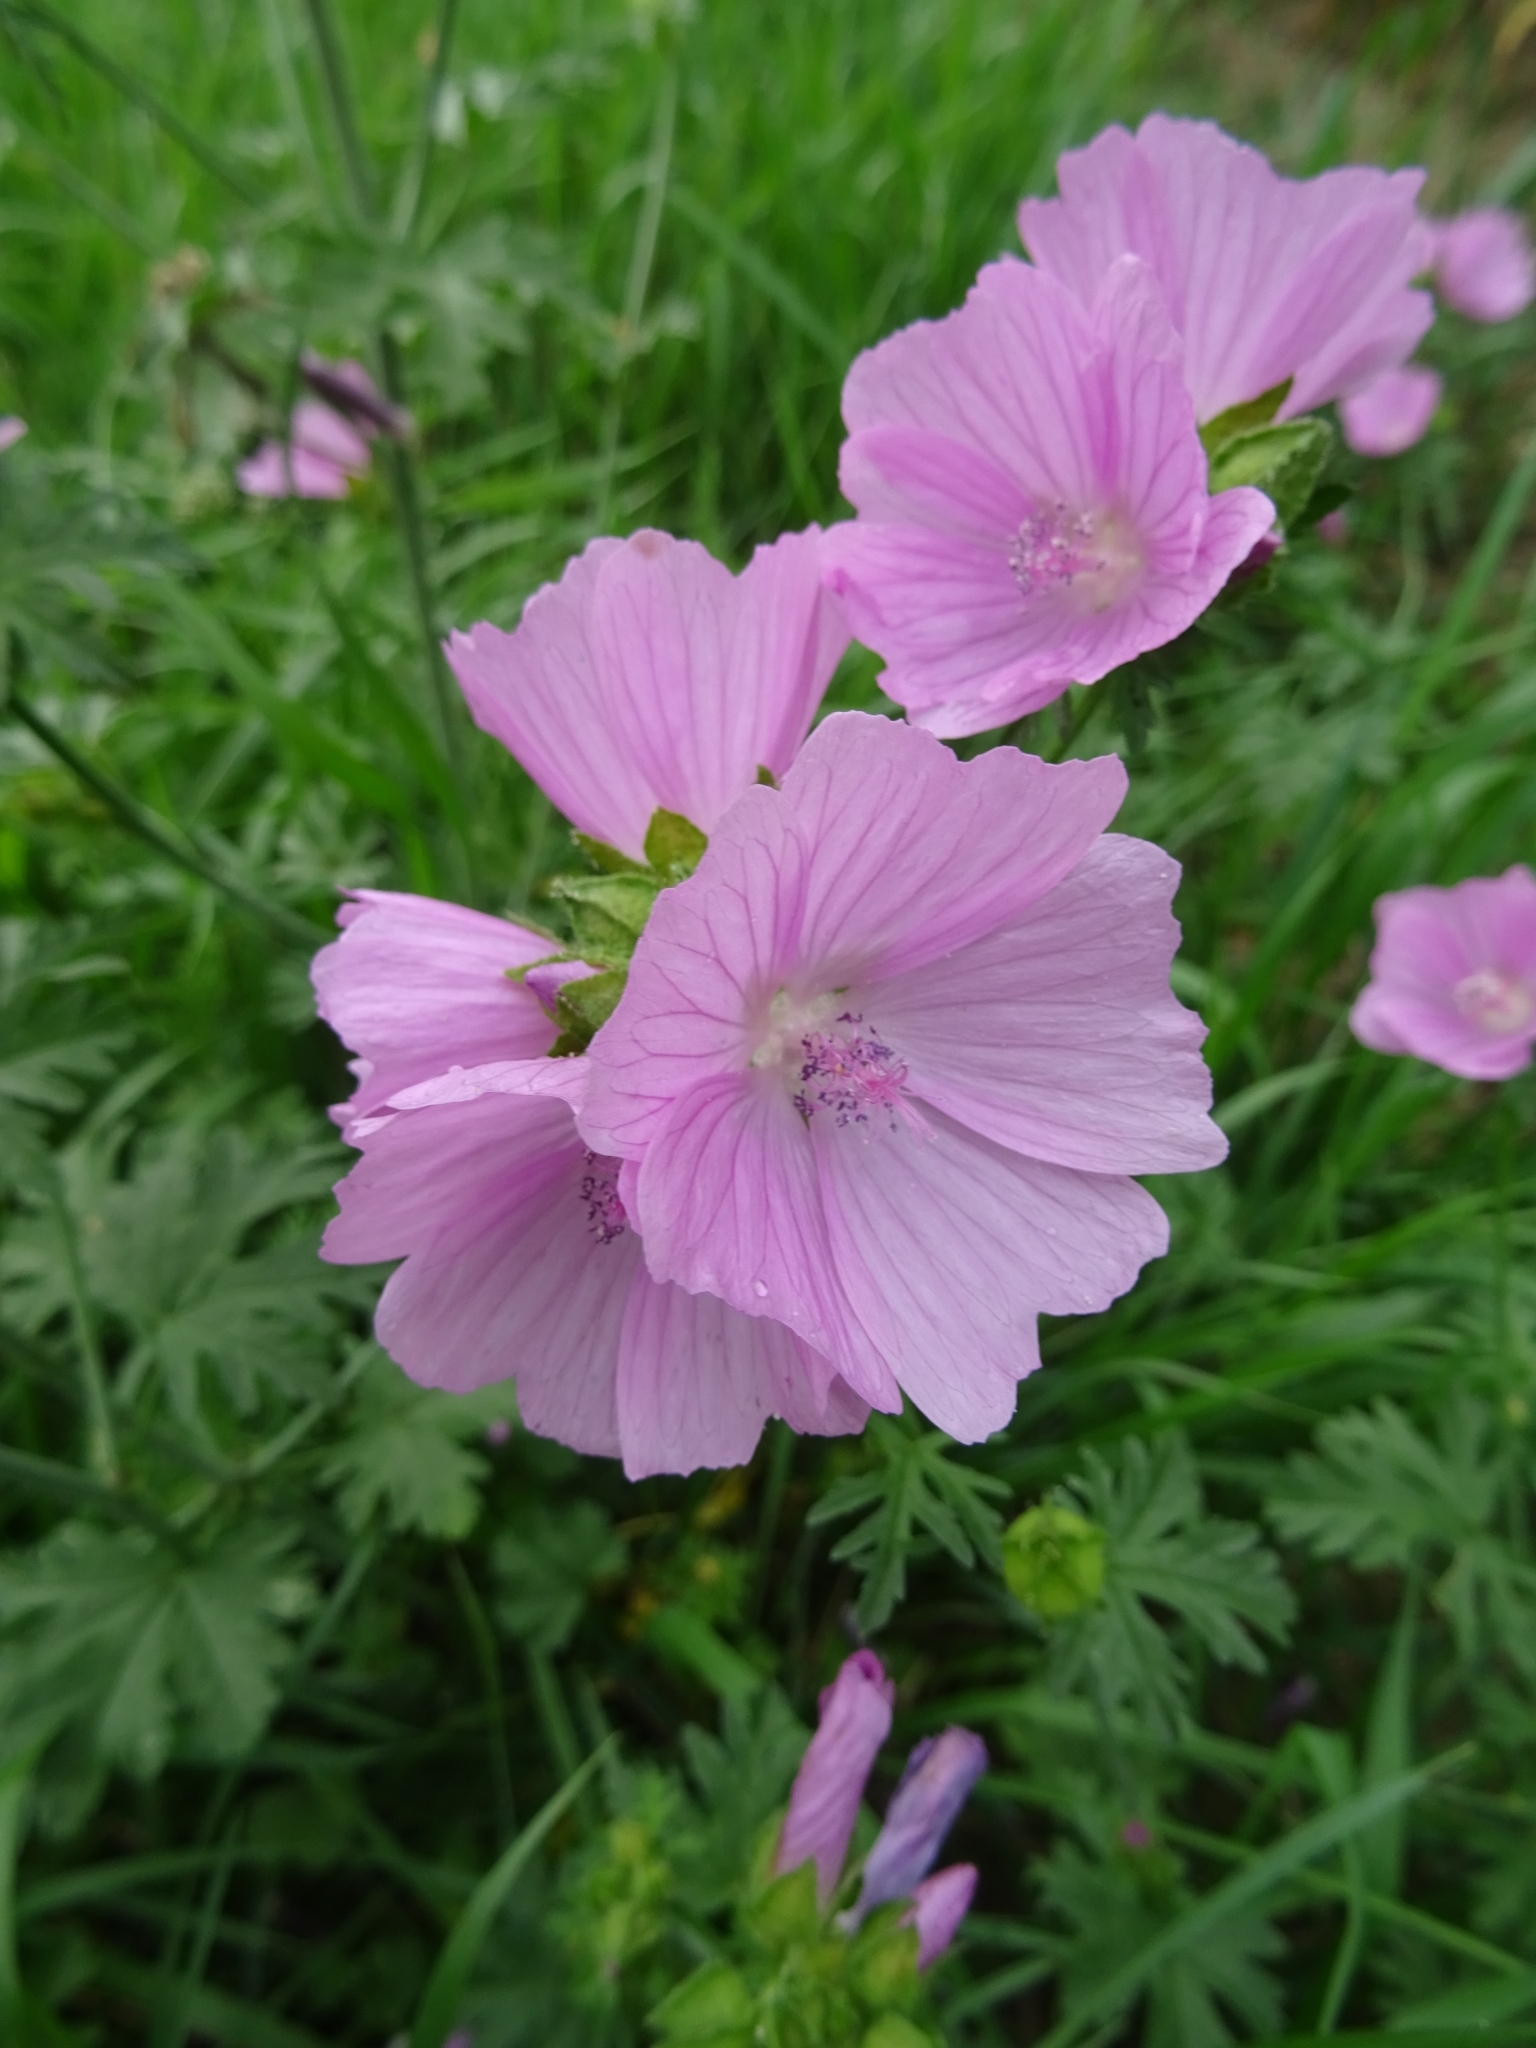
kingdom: Plantae
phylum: Tracheophyta
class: Magnoliopsida
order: Malvales
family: Malvaceae
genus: Malva
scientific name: Malva moschata
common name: Musk mallow
